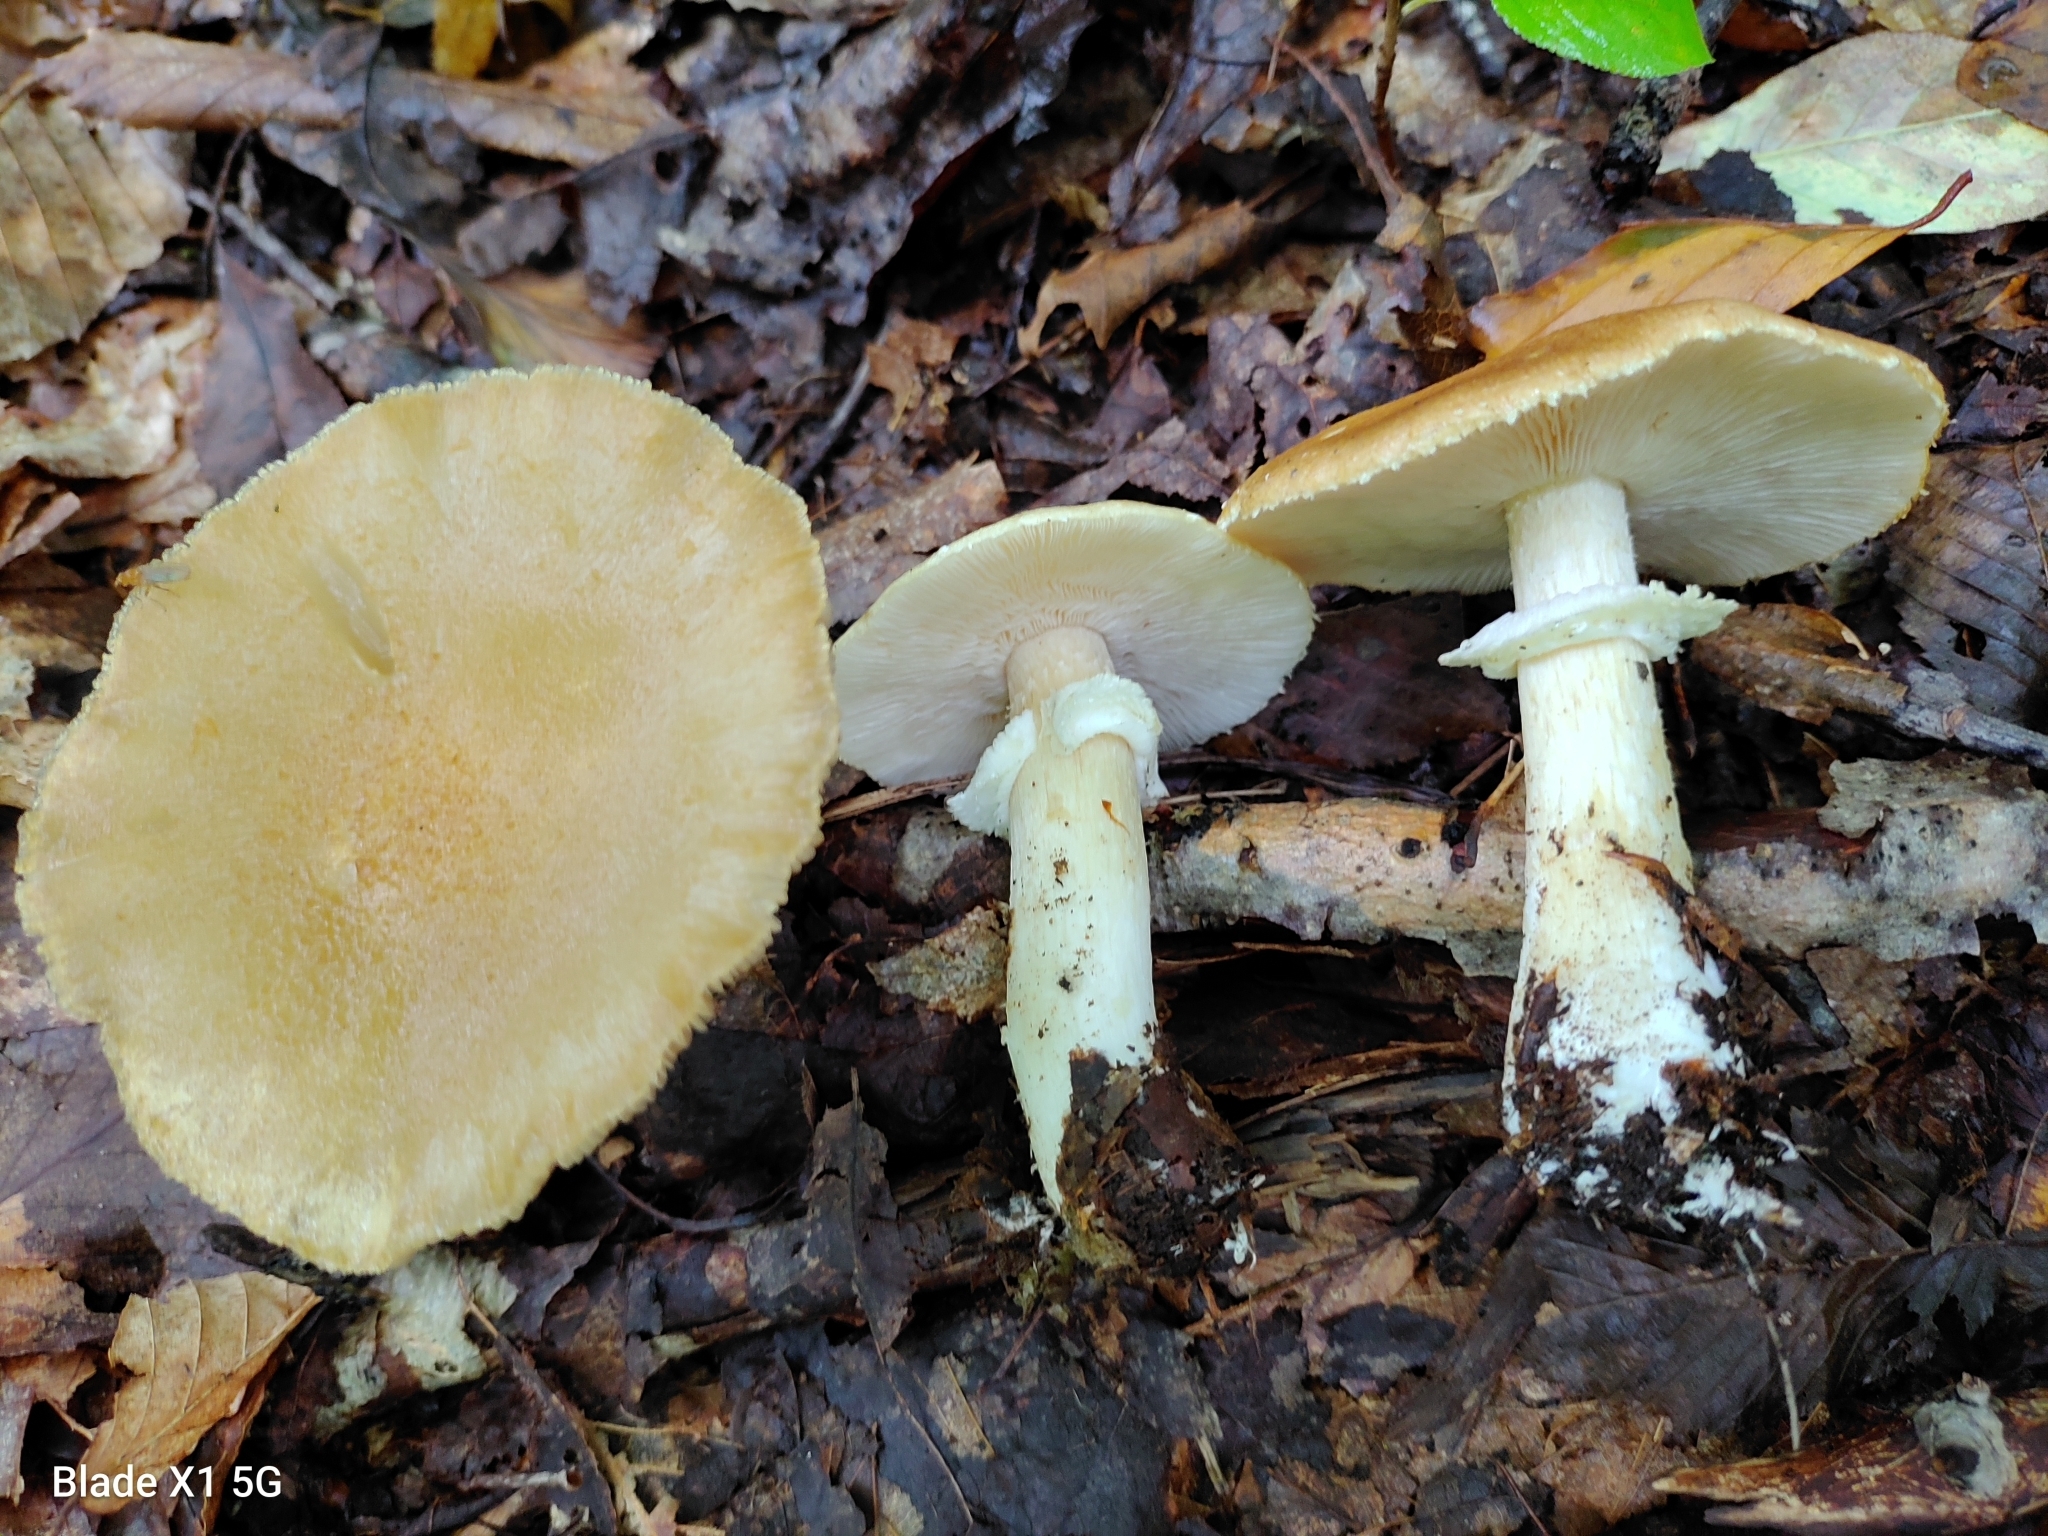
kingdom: Fungi
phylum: Basidiomycota
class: Agaricomycetes
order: Agaricales
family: Strophariaceae
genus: Stropharia
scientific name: Stropharia hardii
